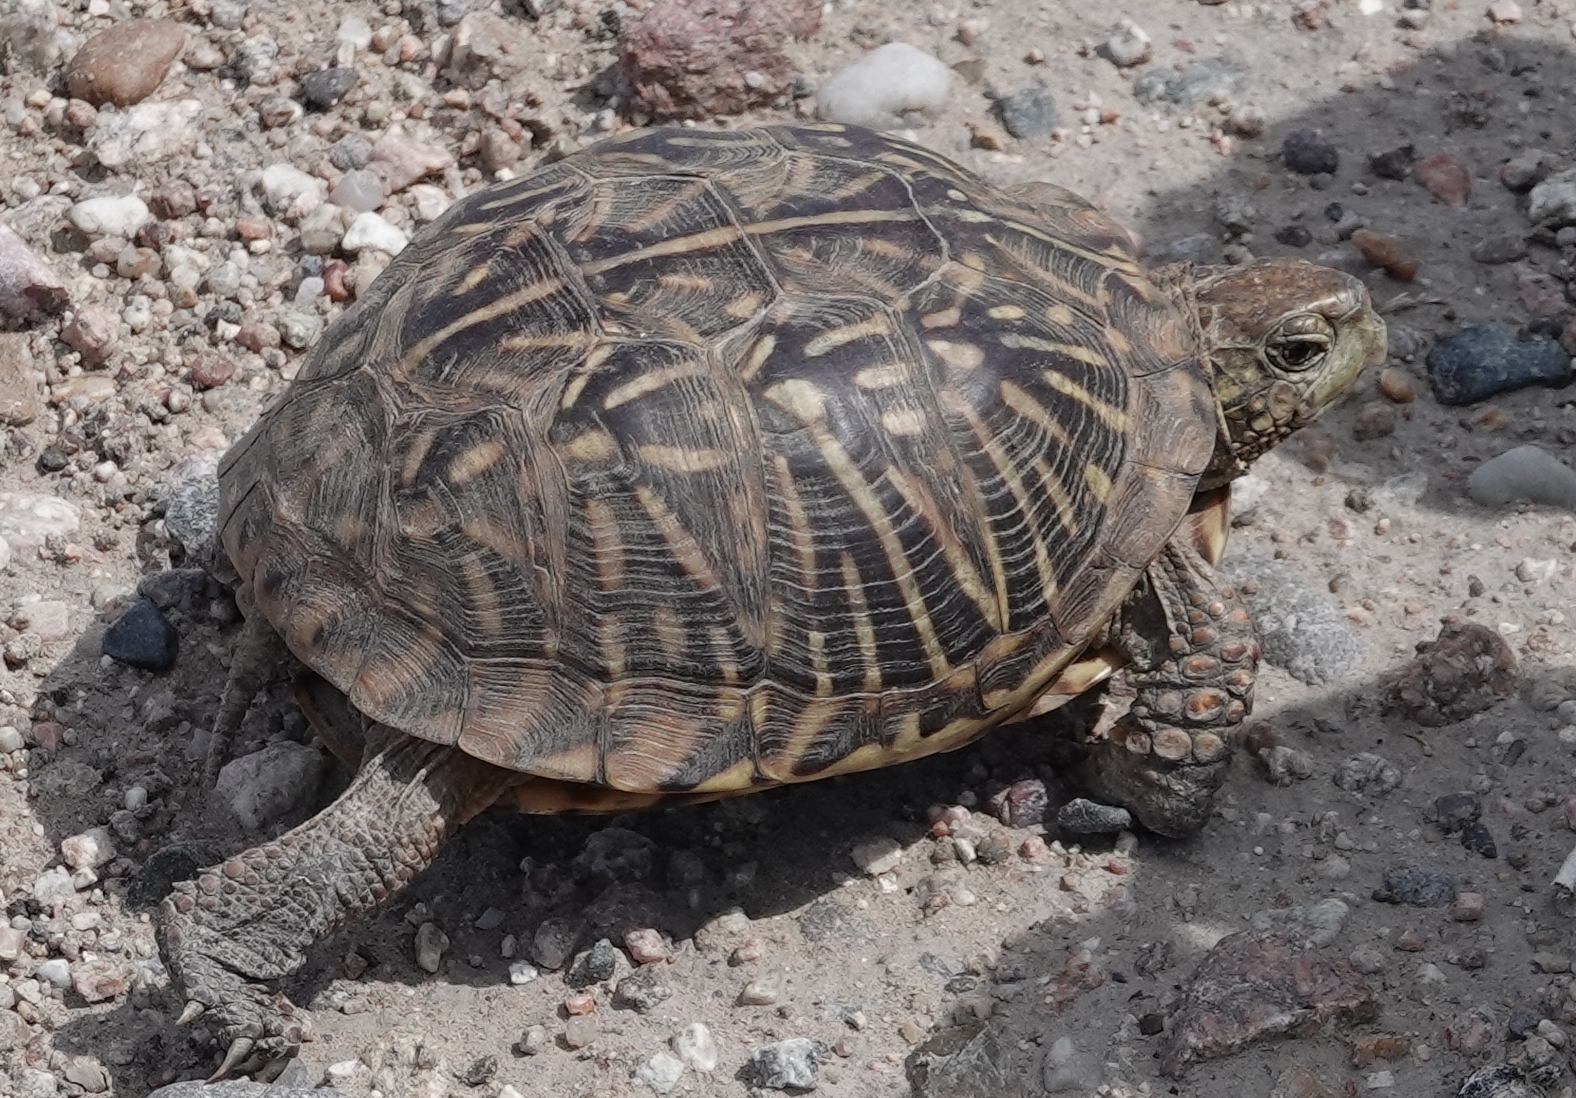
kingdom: Animalia
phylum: Chordata
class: Testudines
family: Emydidae
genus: Terrapene
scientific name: Terrapene ornata
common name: Western box turtle
